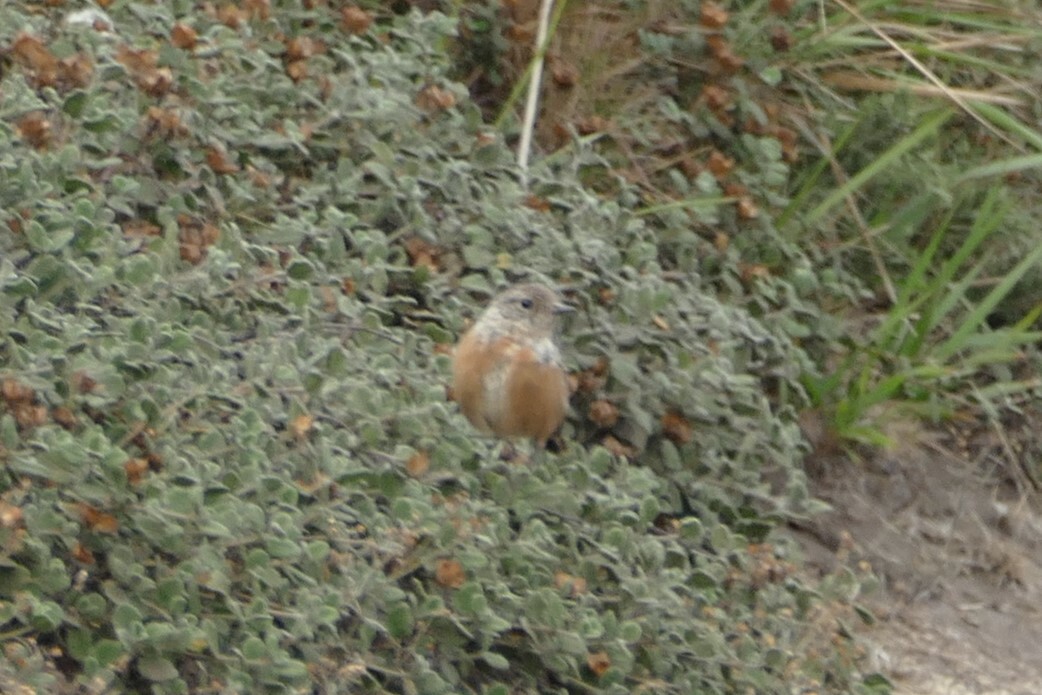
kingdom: Animalia
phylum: Chordata
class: Aves
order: Passeriformes
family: Muscicapidae
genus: Saxicola
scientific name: Saxicola rubicola
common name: European stonechat
